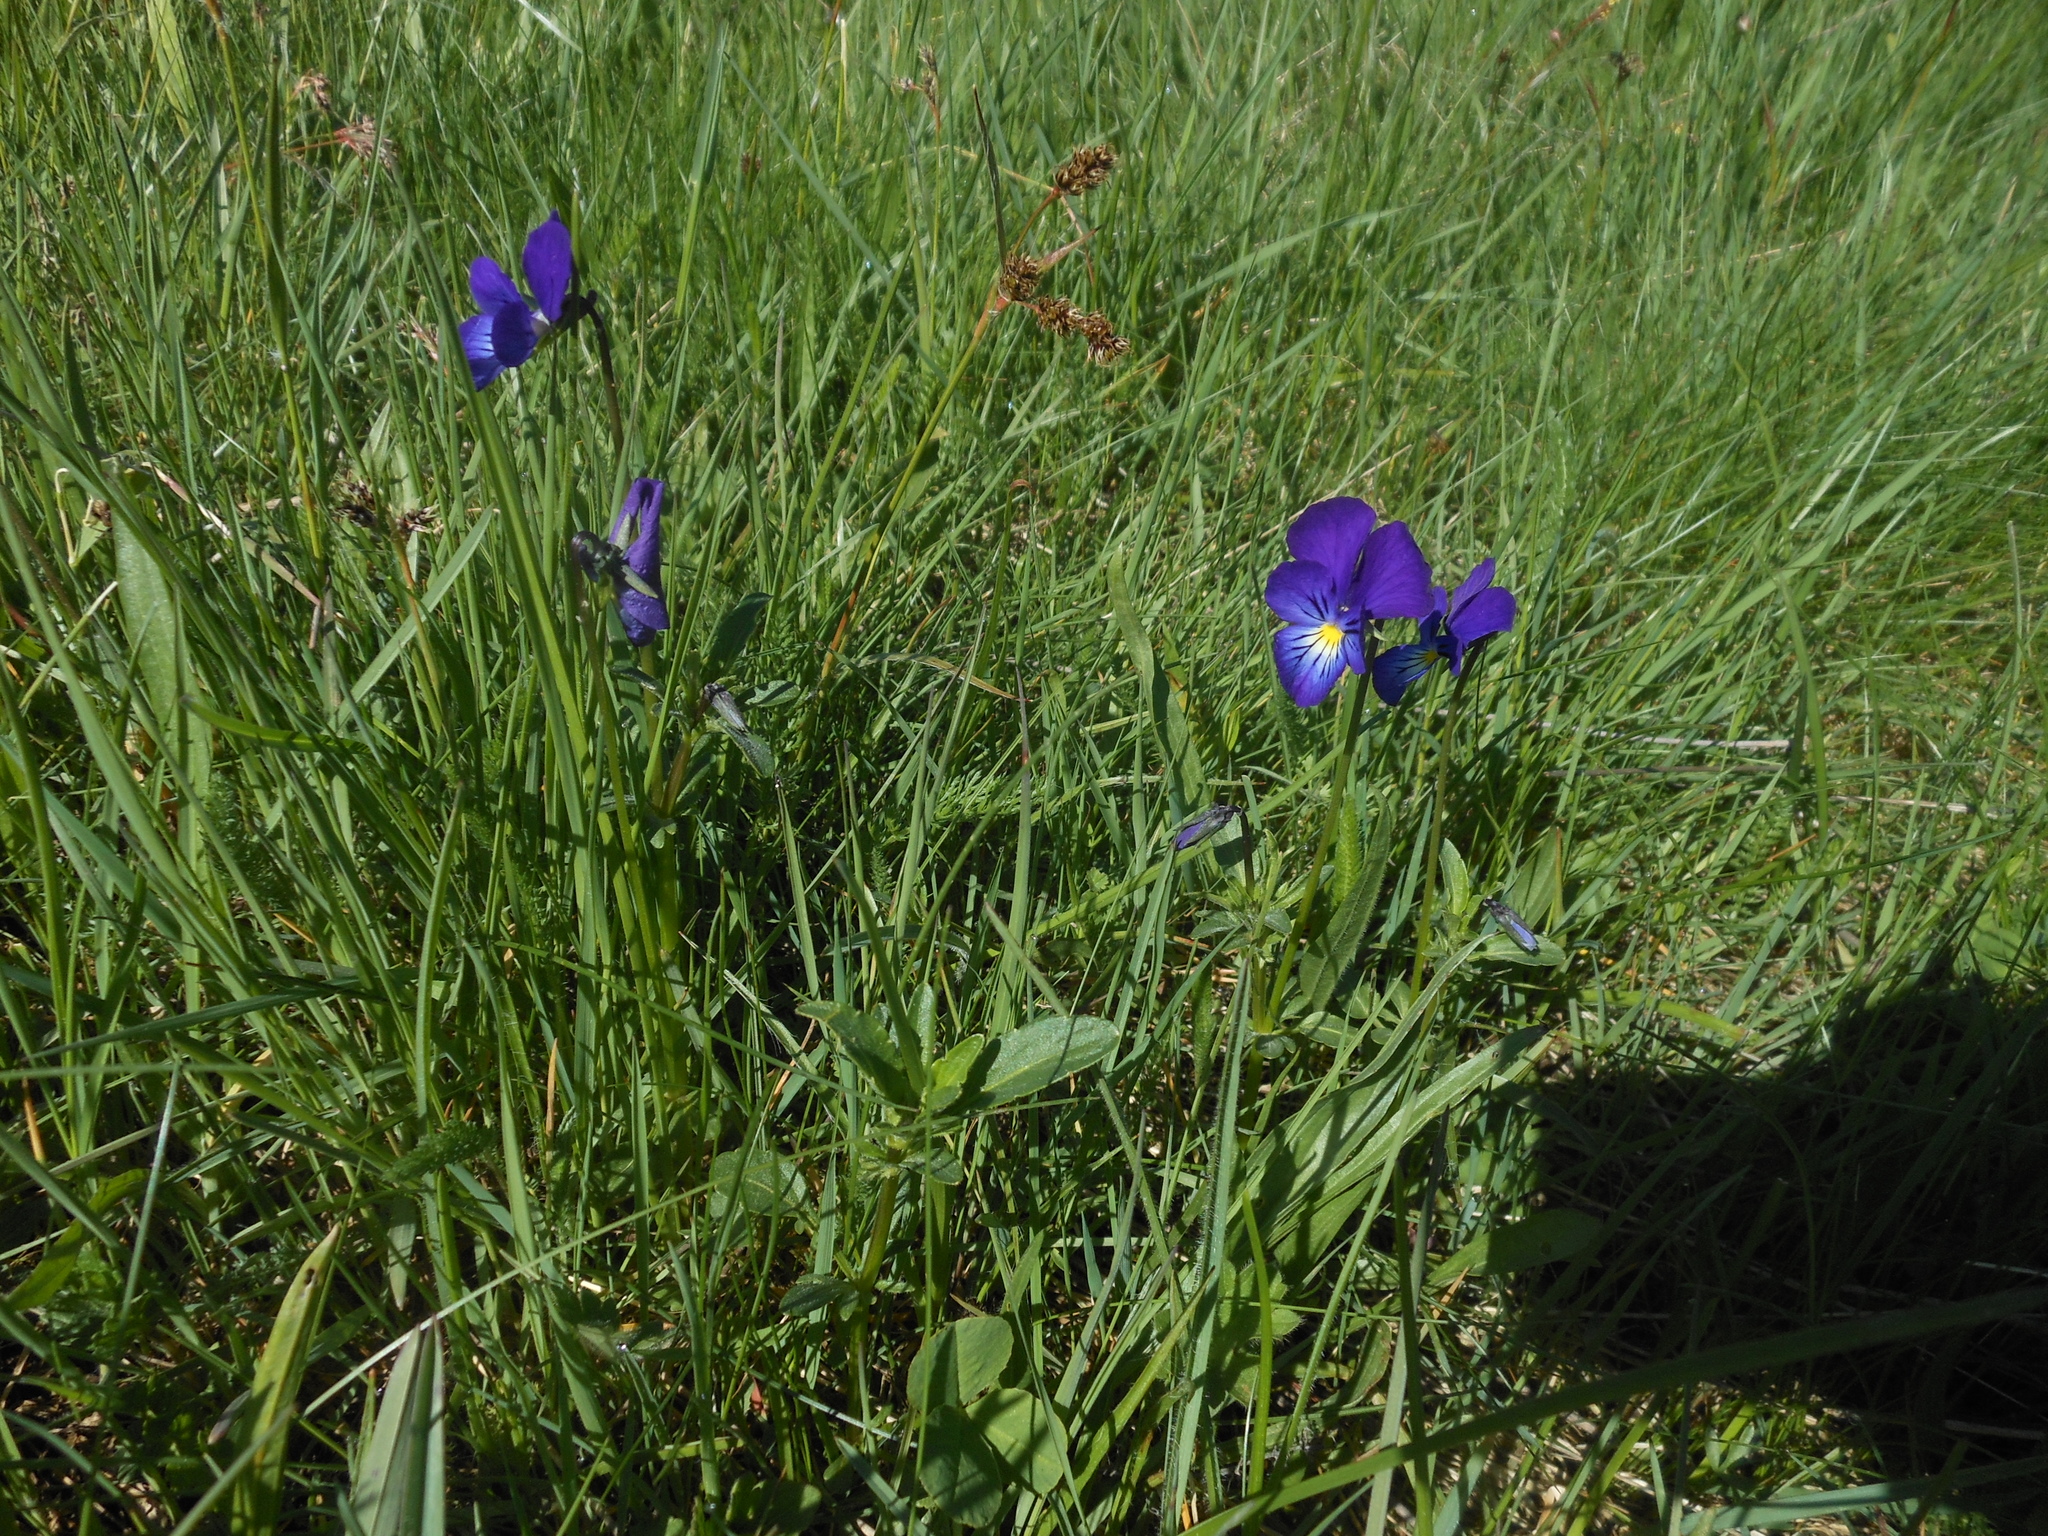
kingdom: Plantae
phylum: Tracheophyta
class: Magnoliopsida
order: Malpighiales
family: Violaceae
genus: Viola
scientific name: Viola lutea
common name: Mountain pansy
